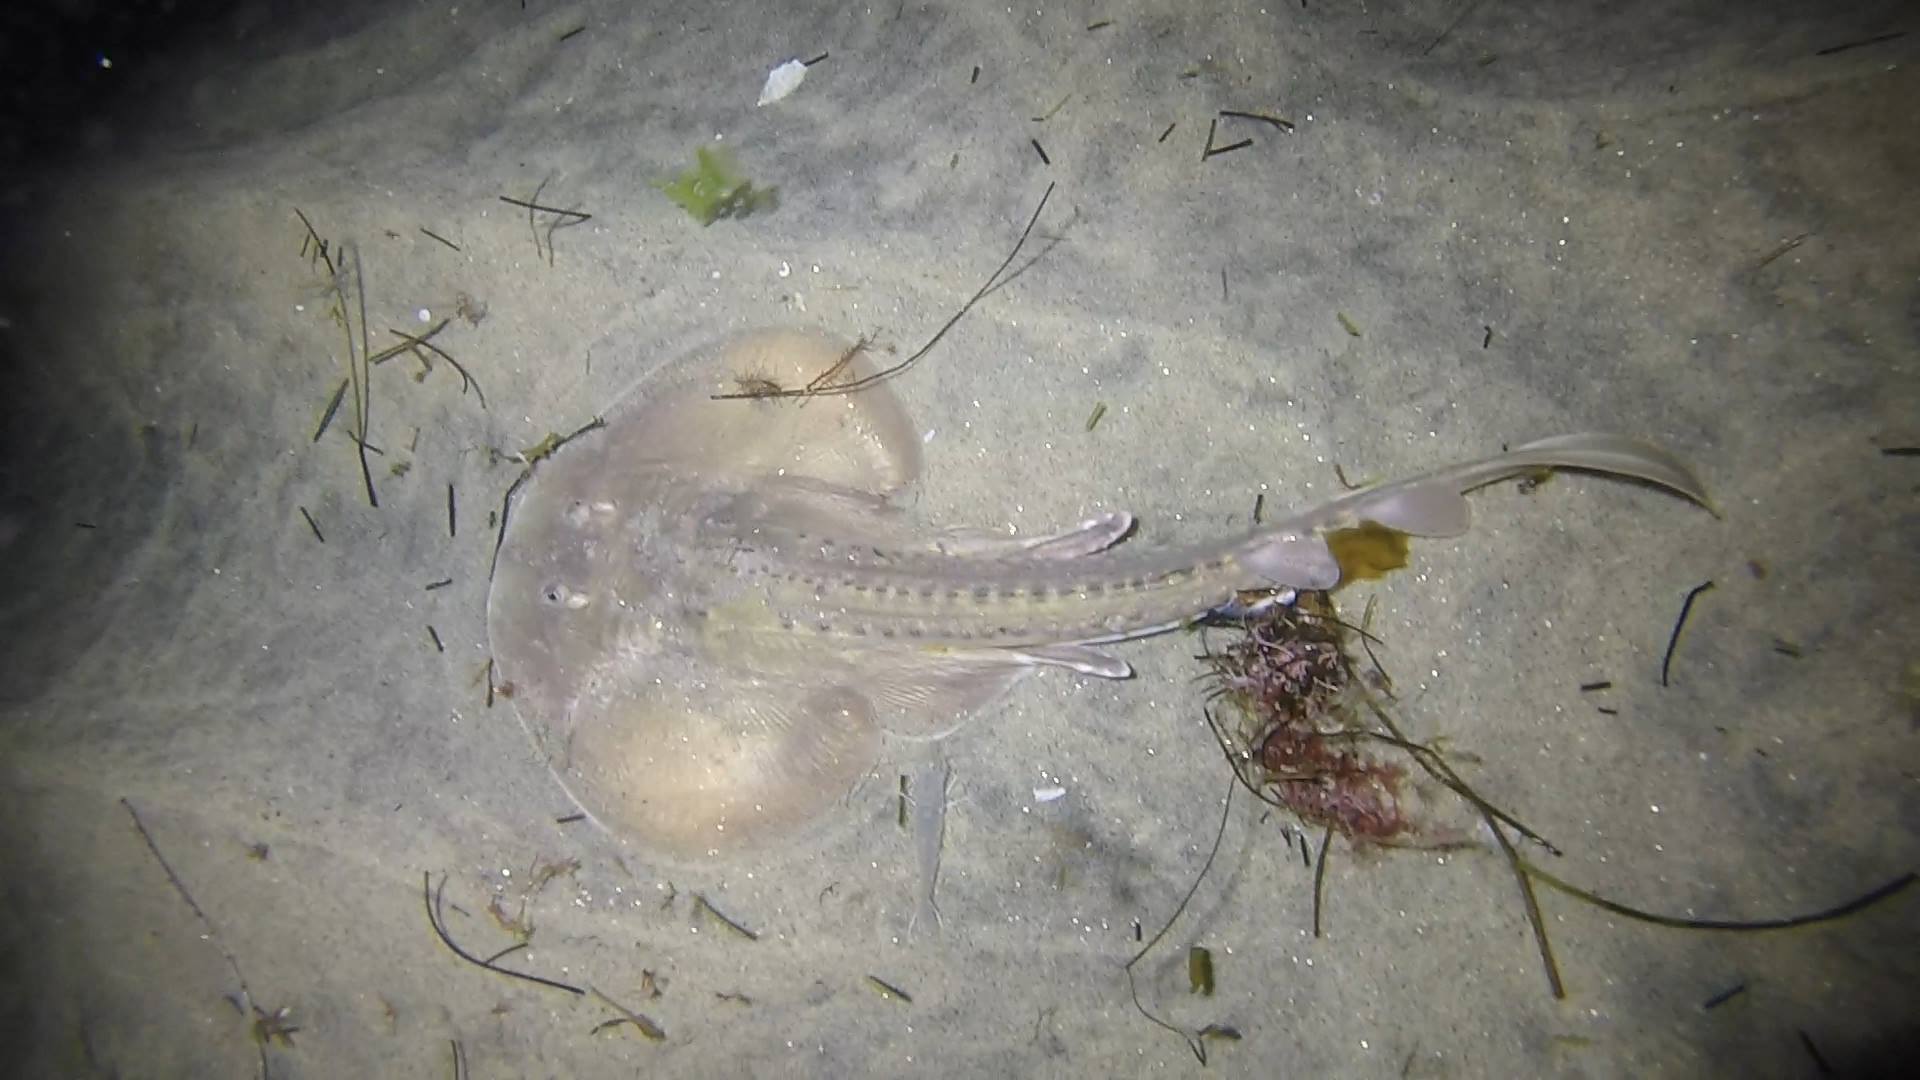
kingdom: Animalia
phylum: Chordata
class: Elasmobranchii
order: Rhinopristiformes
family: Rhinobatidae
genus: Platyrhinoidis
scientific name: Platyrhinoidis triseriata
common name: Thornback
